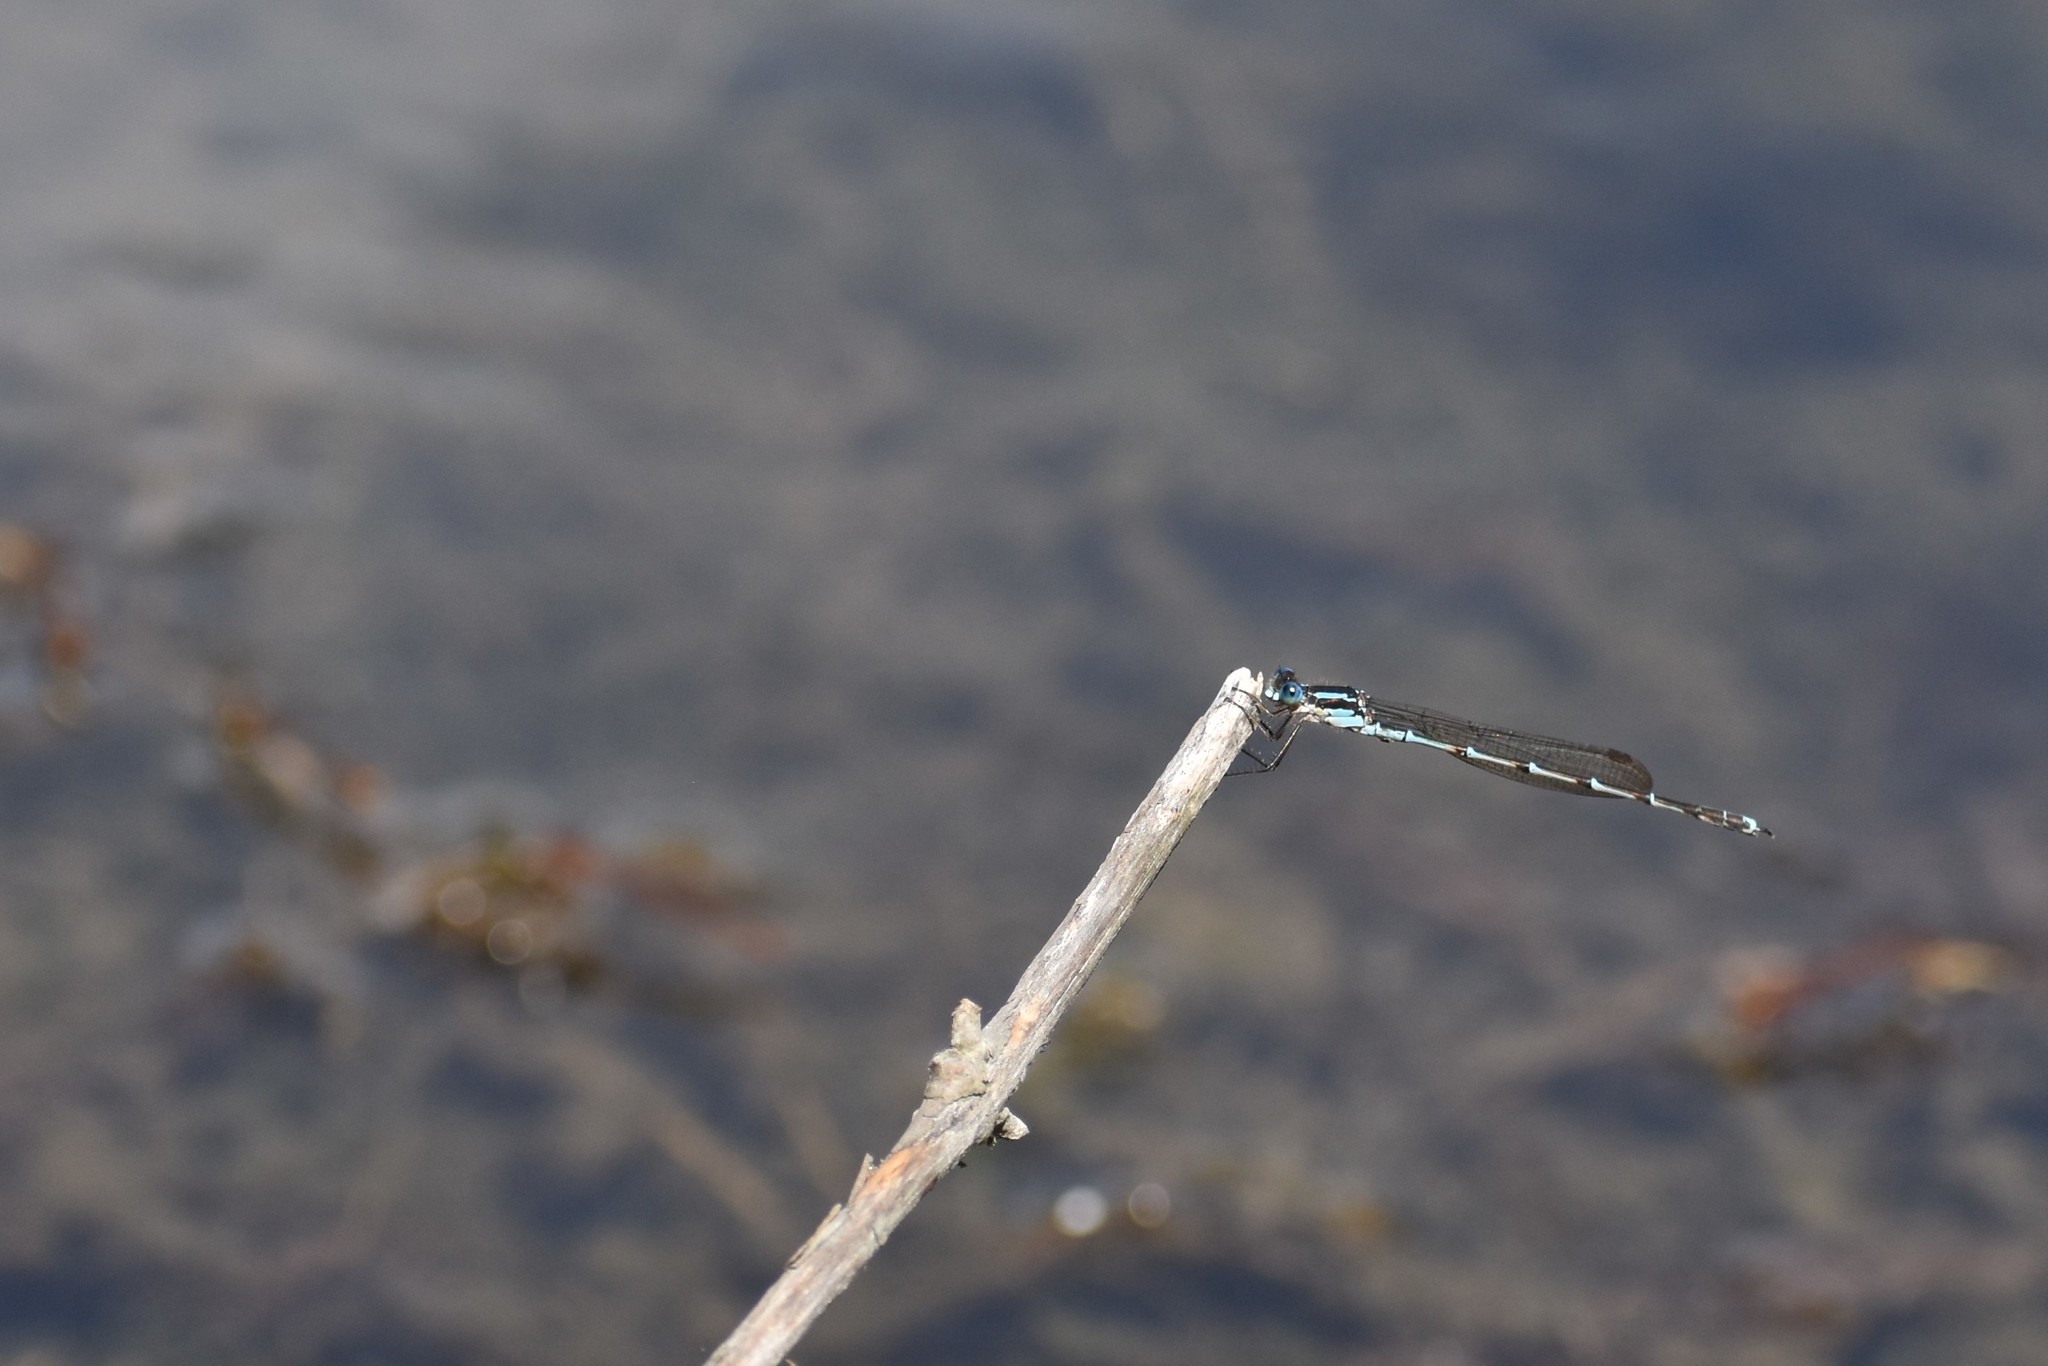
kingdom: Animalia
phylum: Arthropoda
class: Insecta
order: Odonata
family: Lestidae
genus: Austrolestes
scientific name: Austrolestes colensonis
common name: Blue damselfly
